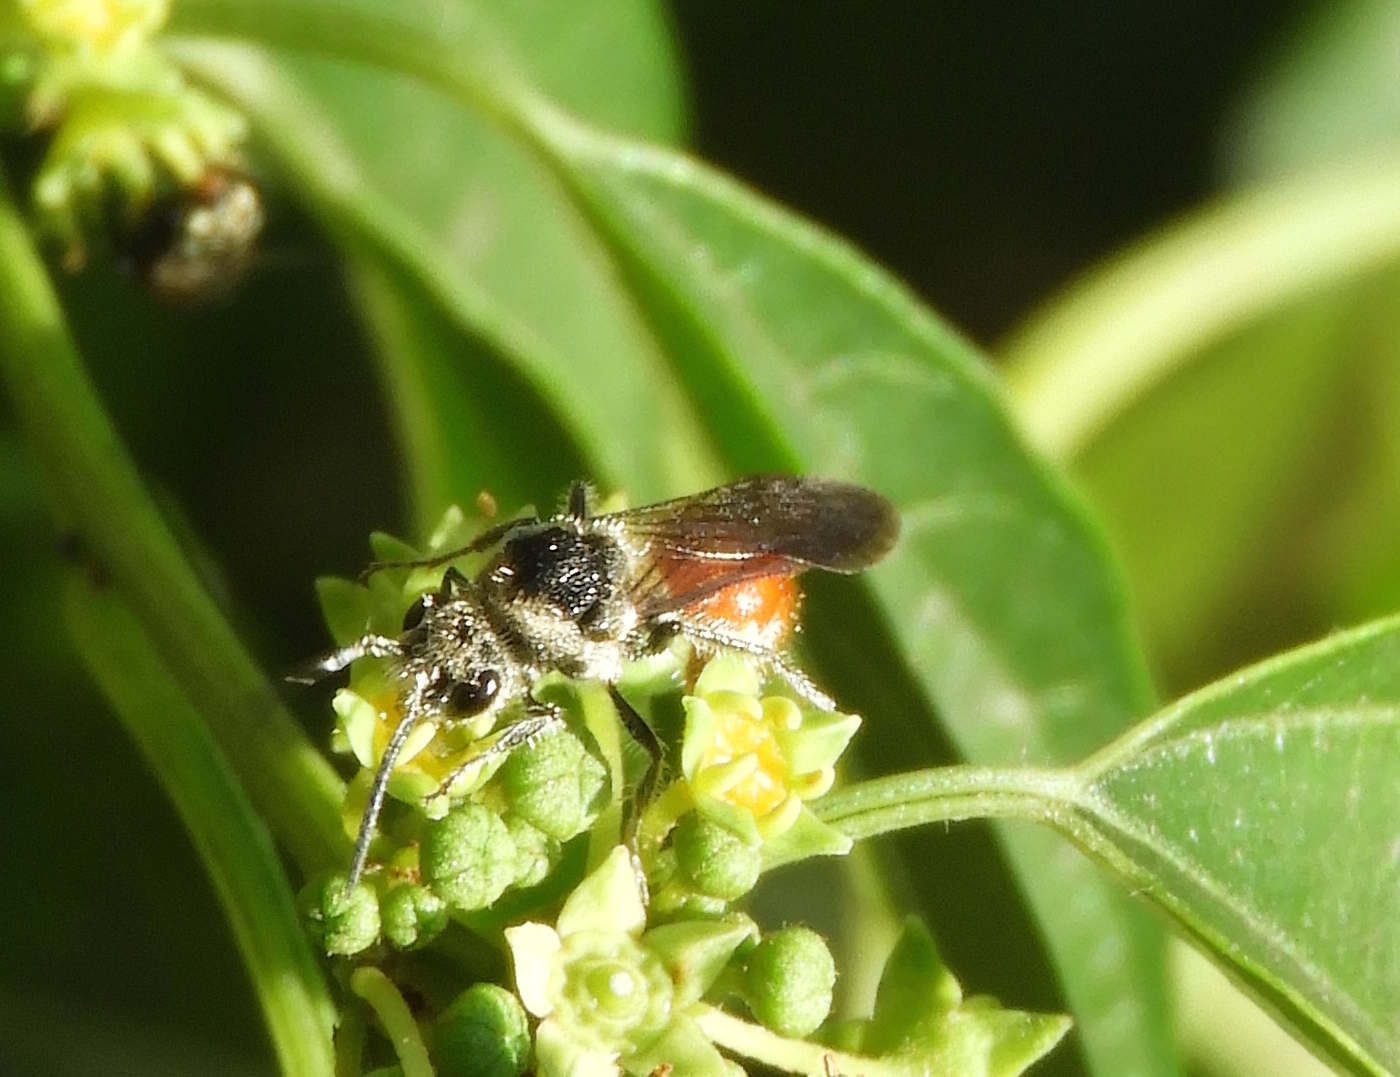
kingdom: Animalia
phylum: Arthropoda
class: Insecta
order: Hymenoptera
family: Mutillidae
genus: Timulla
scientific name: Timulla
